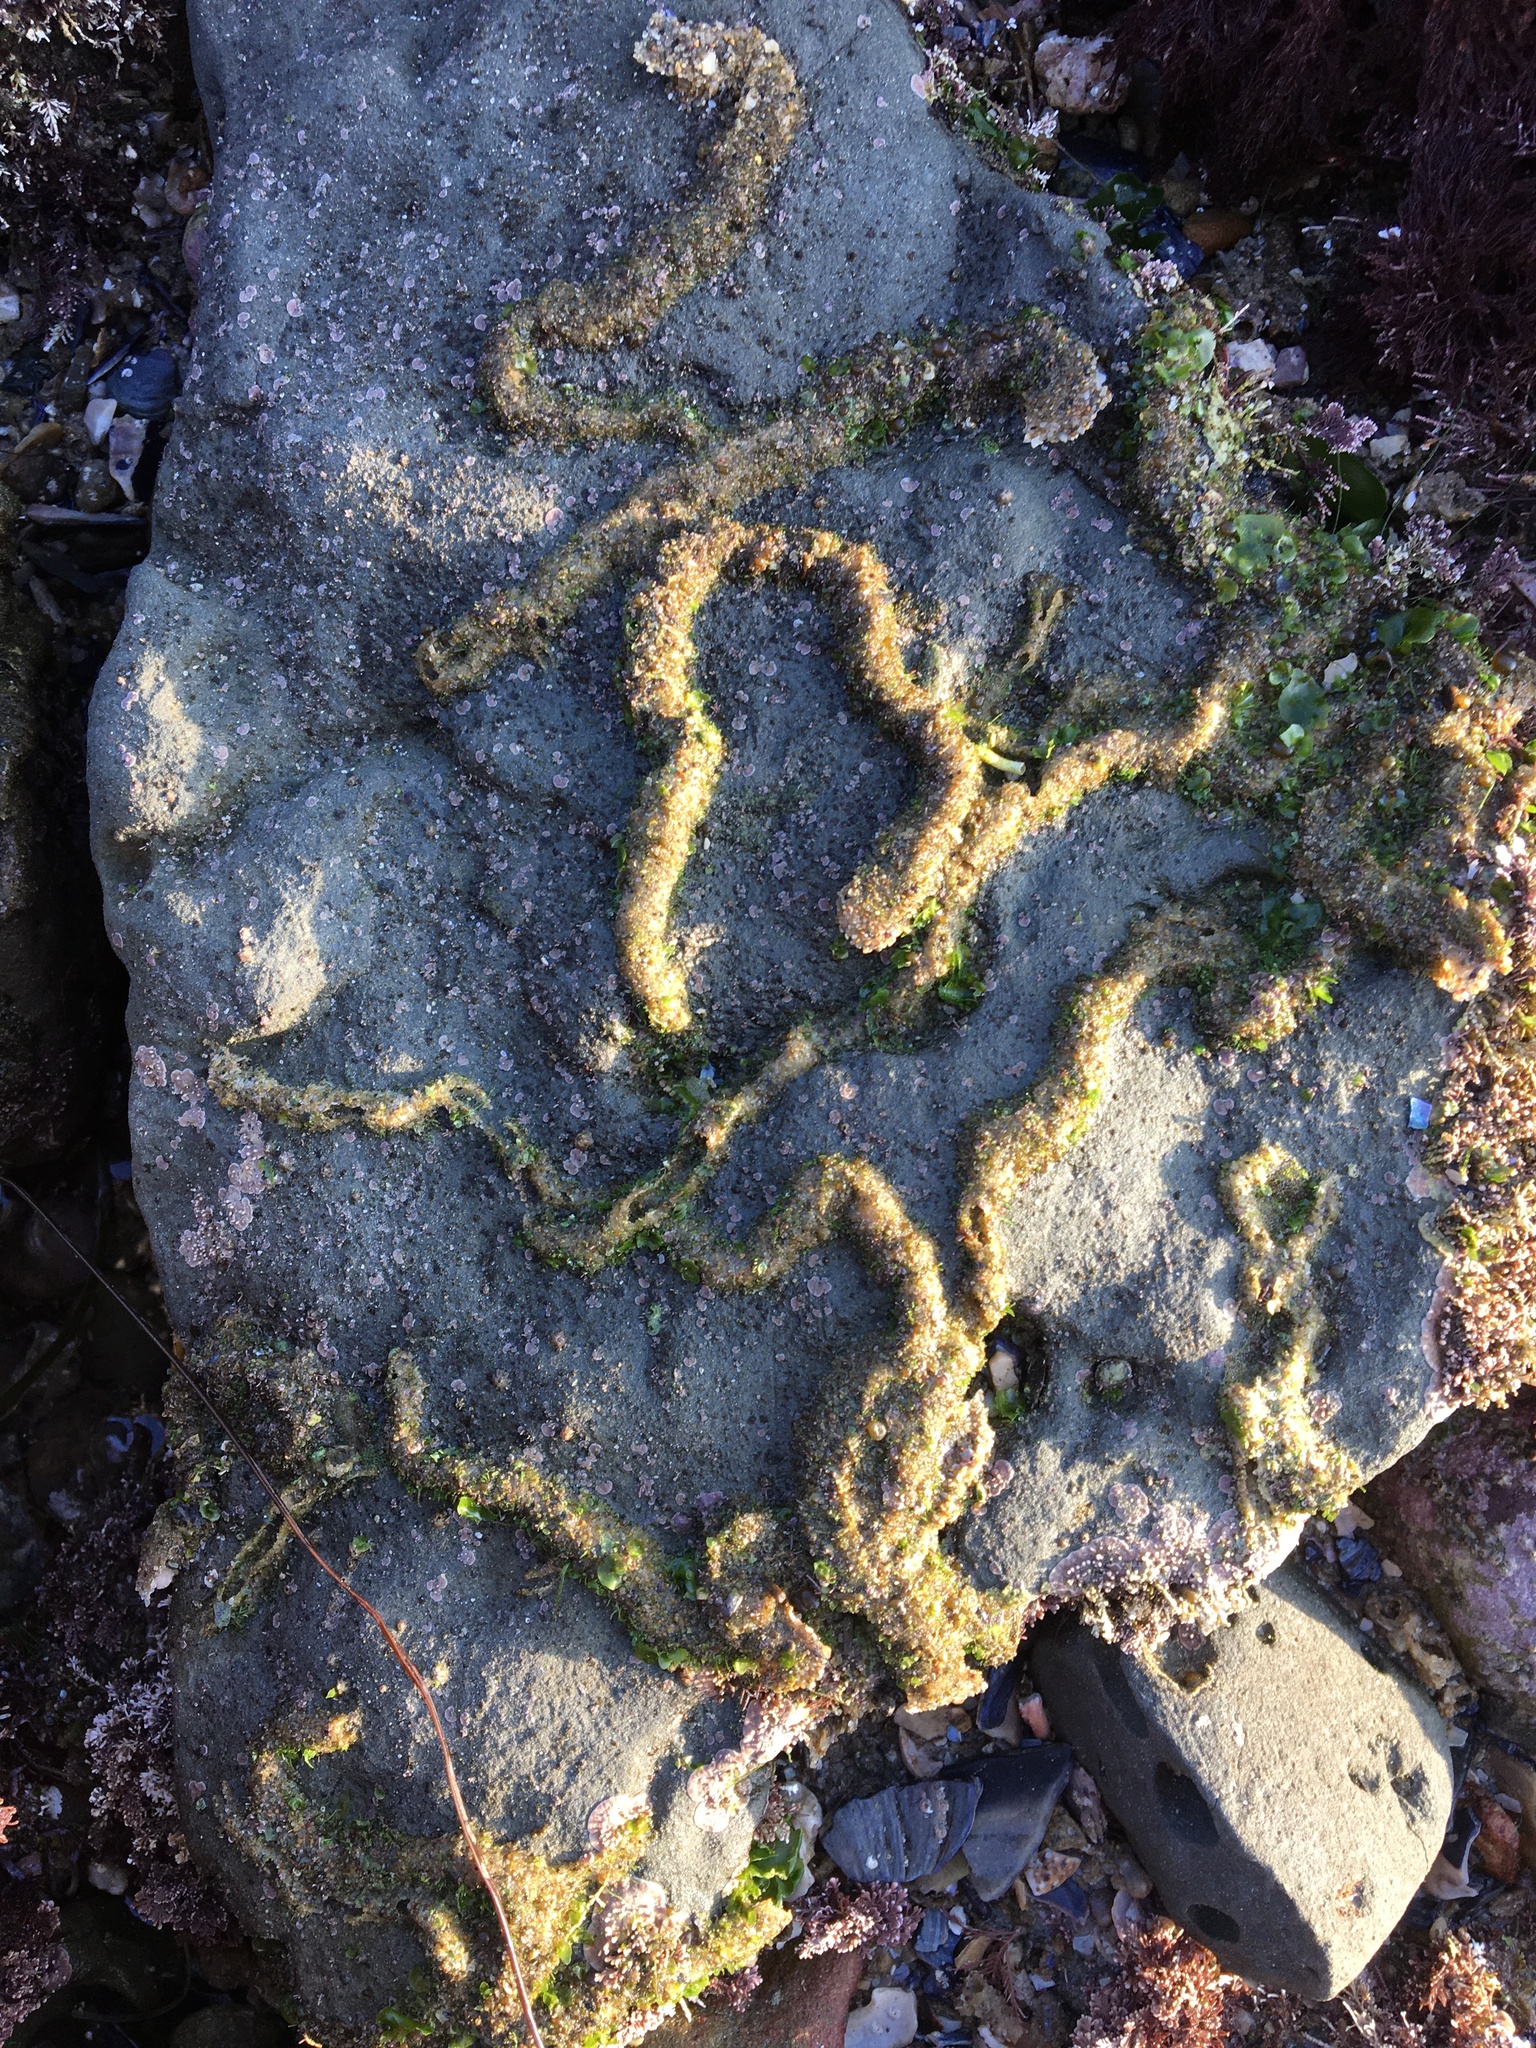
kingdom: Animalia
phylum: Mollusca
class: Gastropoda
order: Littorinimorpha
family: Vermetidae
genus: Thylacodes
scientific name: Thylacodes squamigerus
